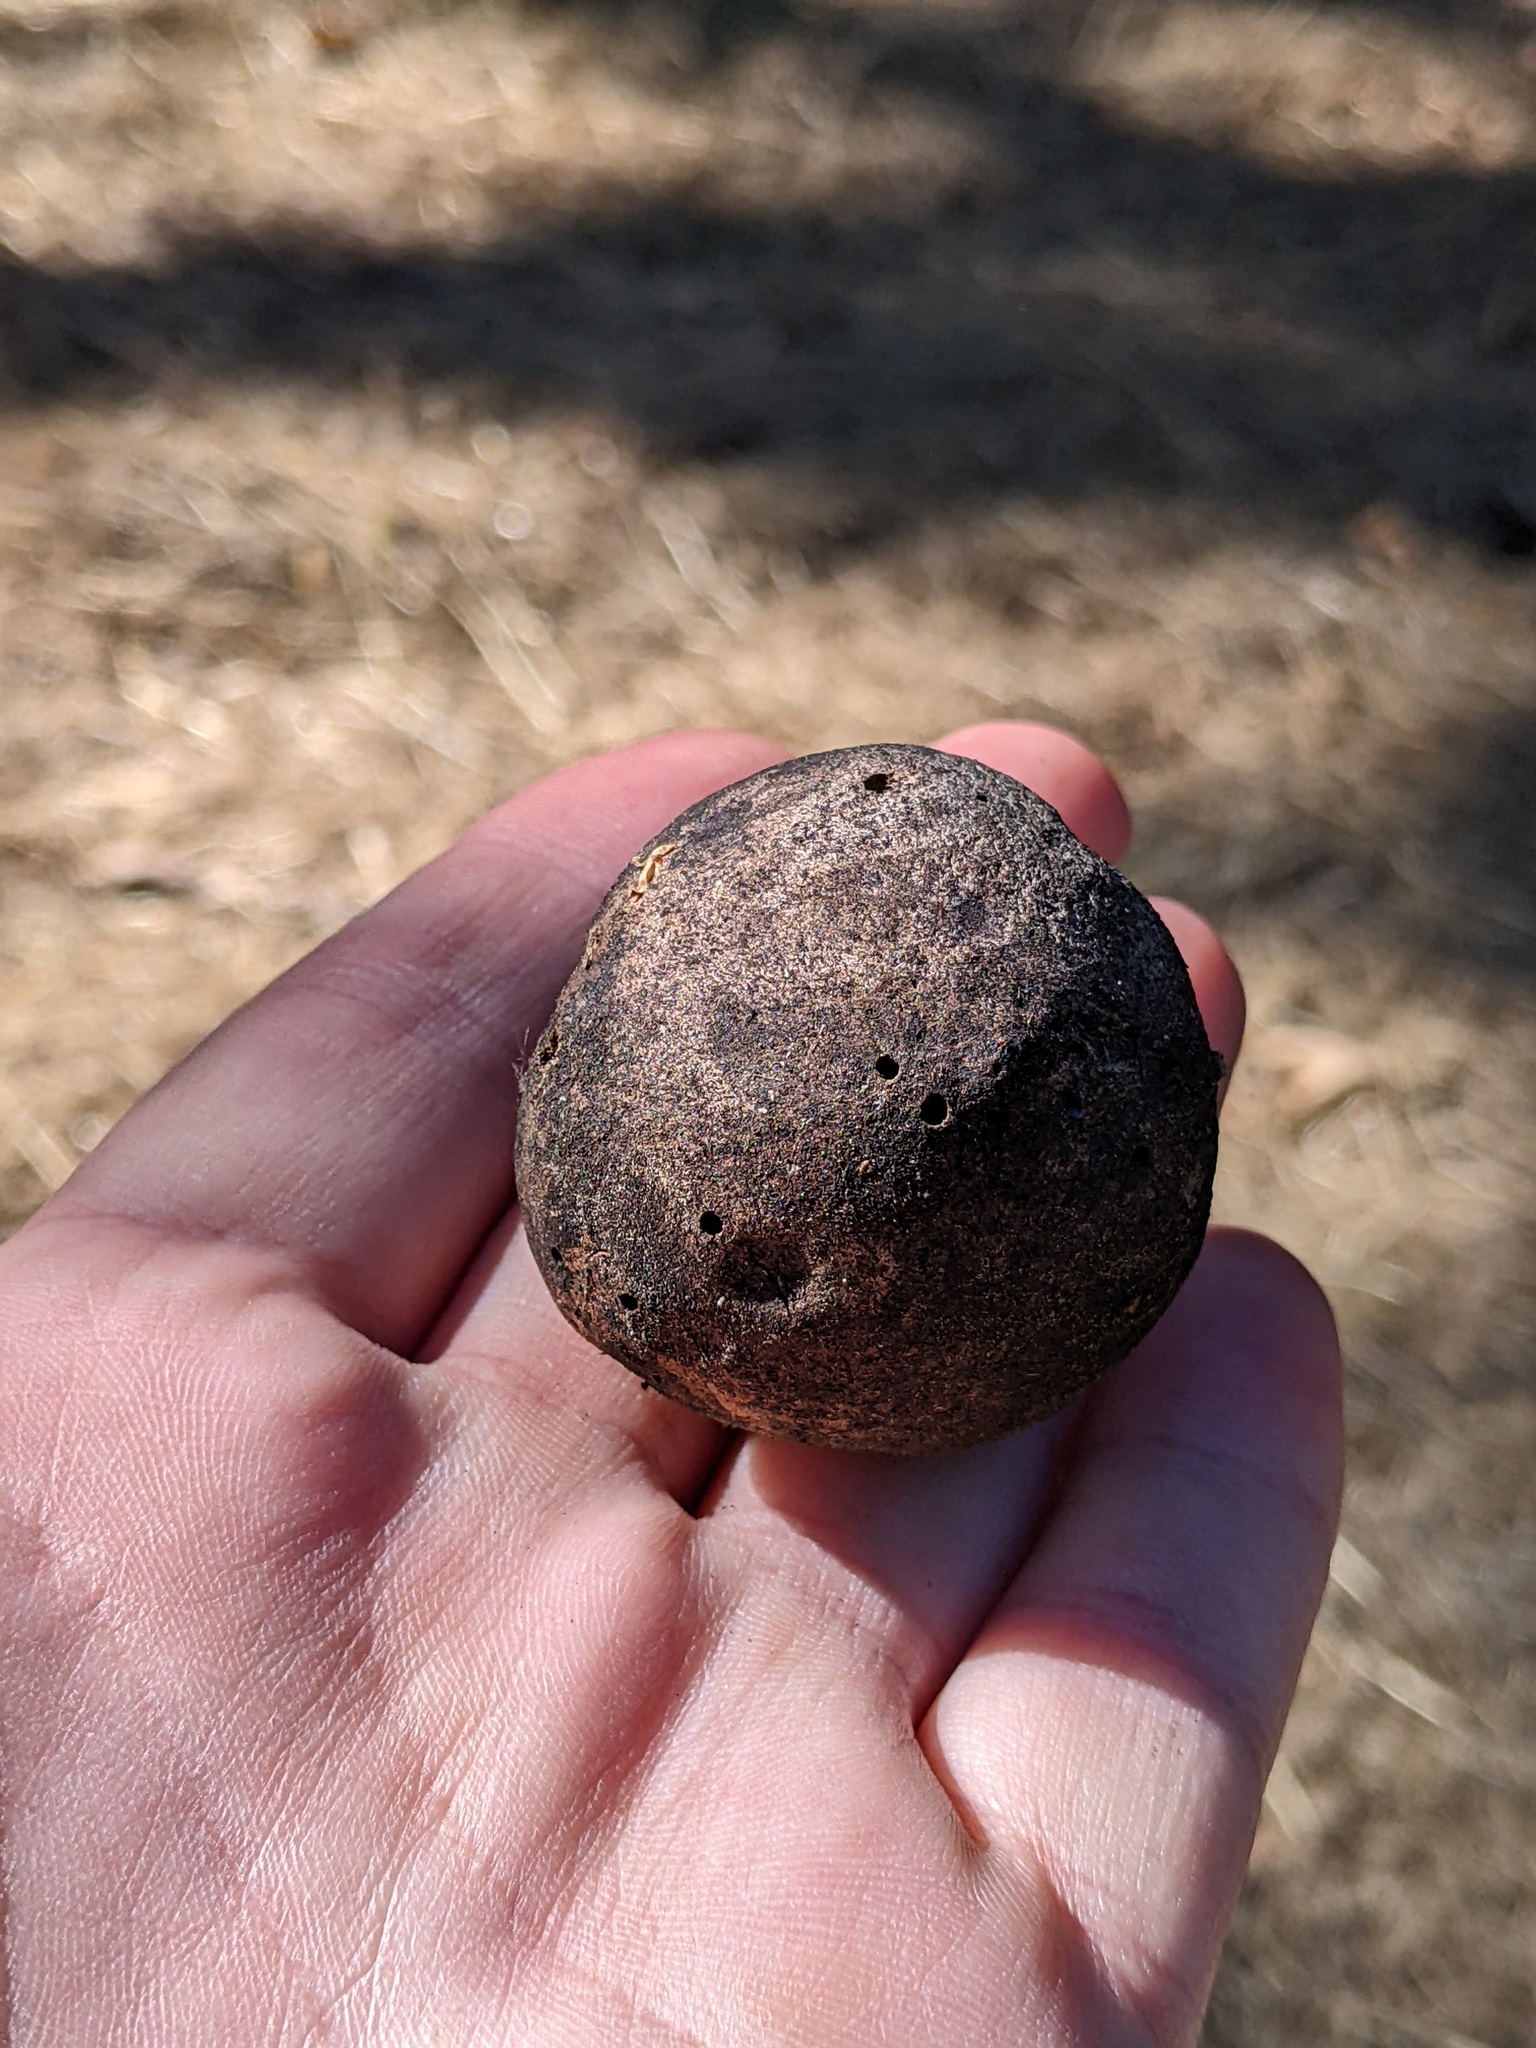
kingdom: Animalia
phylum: Arthropoda
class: Insecta
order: Hymenoptera
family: Cynipidae
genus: Andricus
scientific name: Andricus quercuscalifornicus
